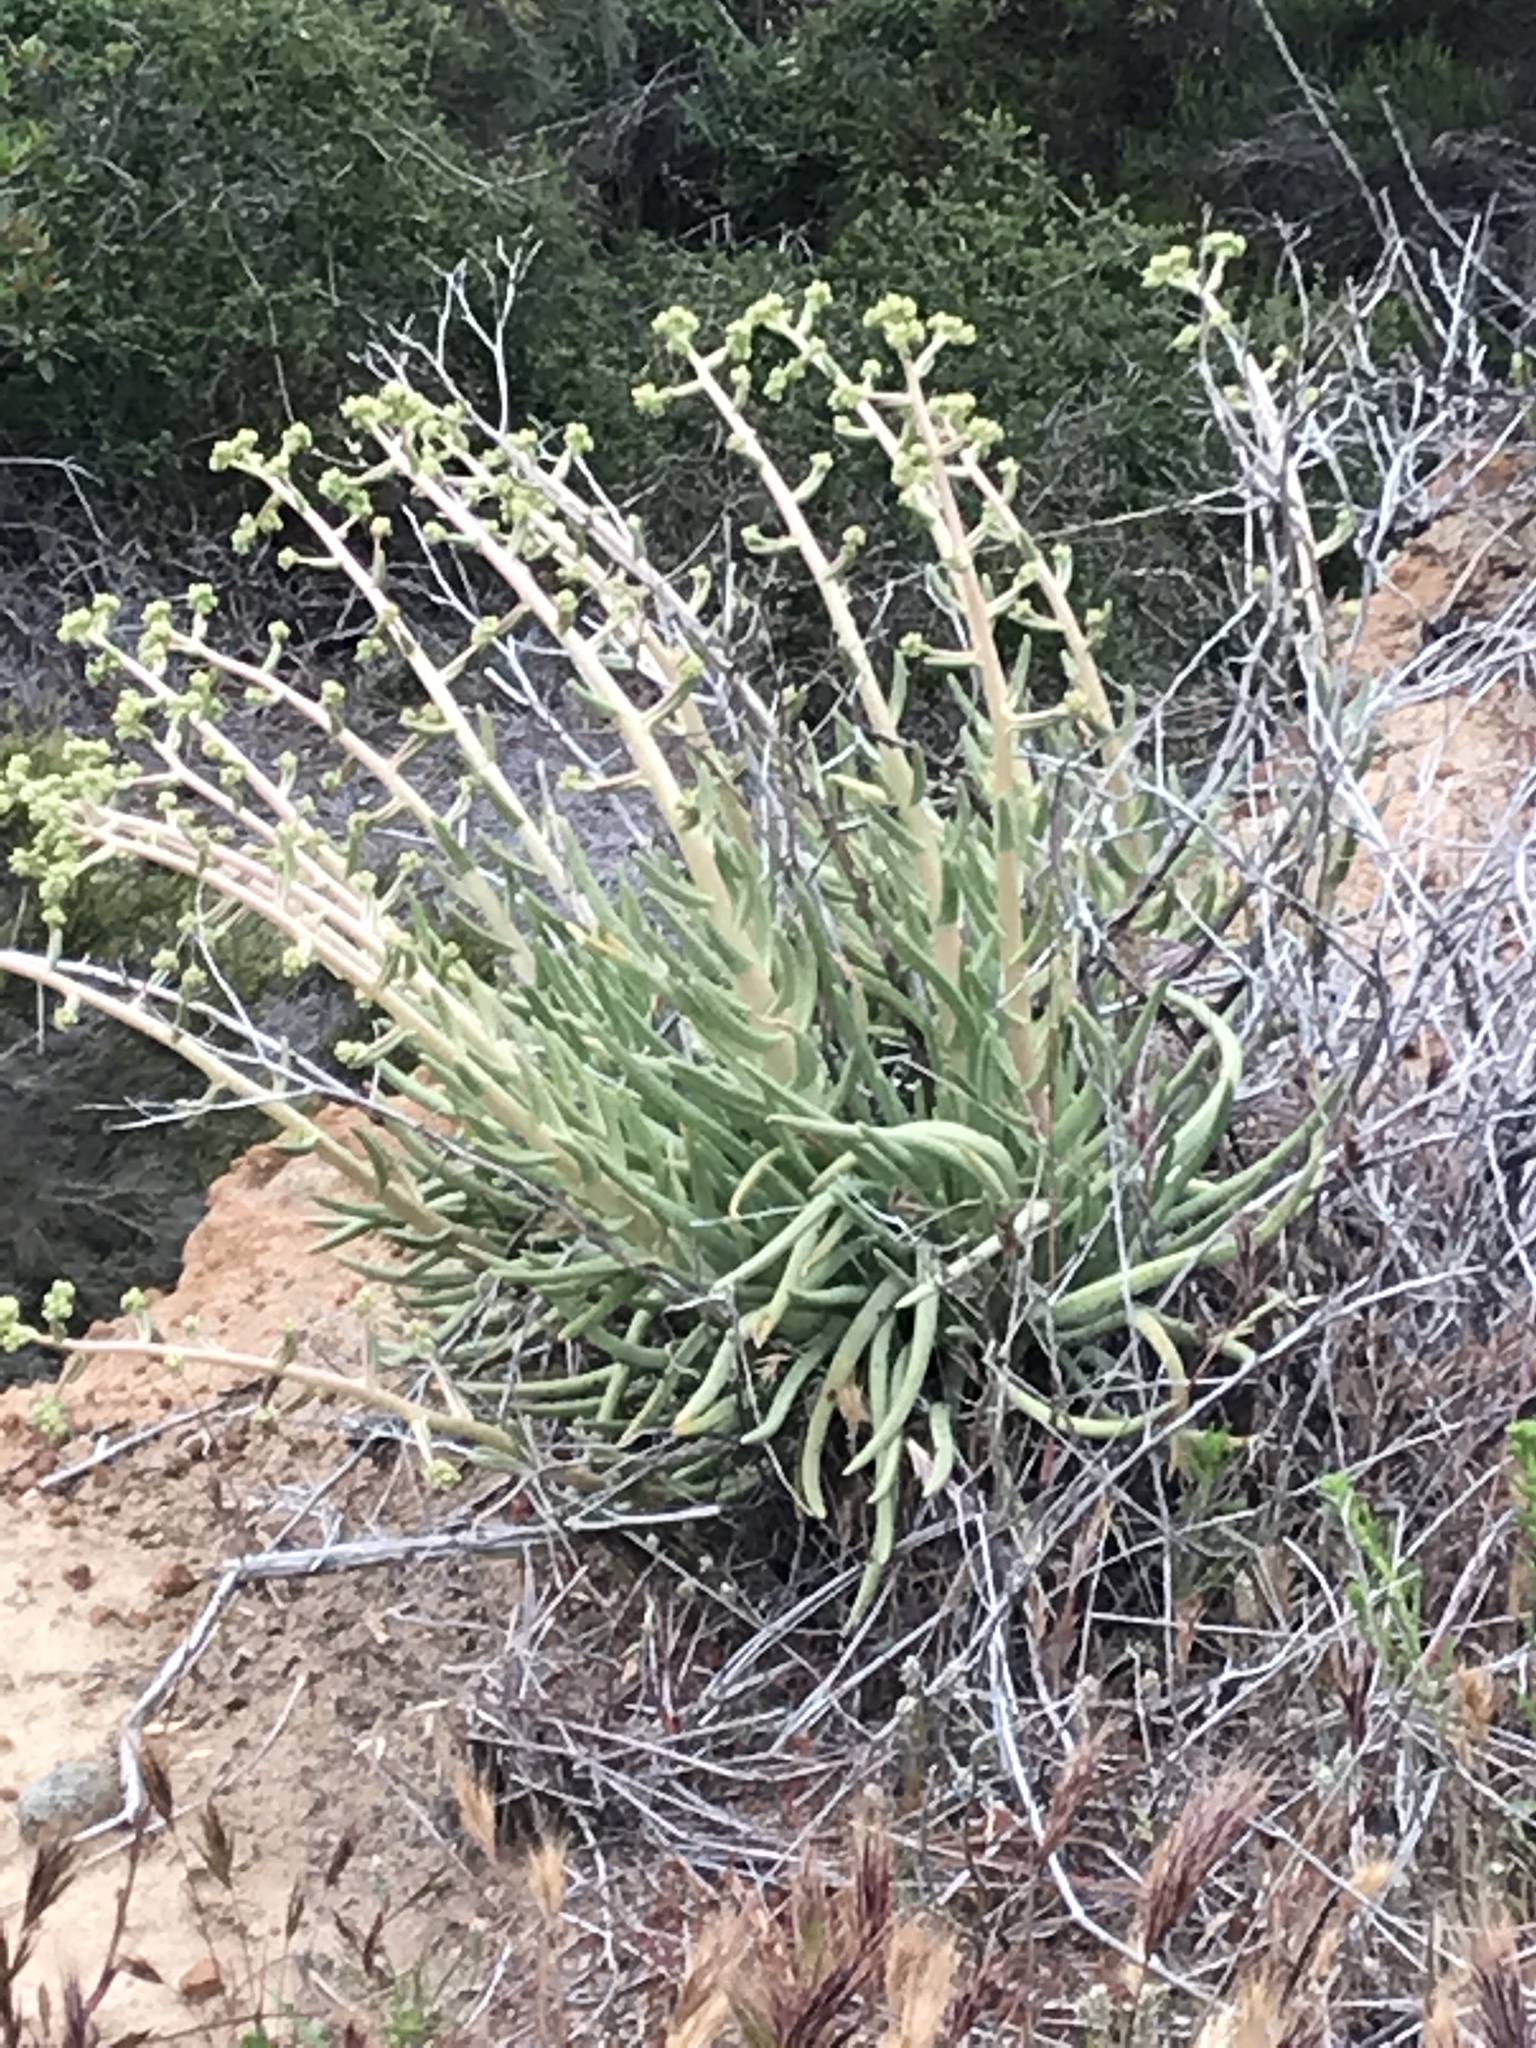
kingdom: Plantae
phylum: Tracheophyta
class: Magnoliopsida
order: Saxifragales
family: Crassulaceae
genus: Dudleya
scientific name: Dudleya edulis
